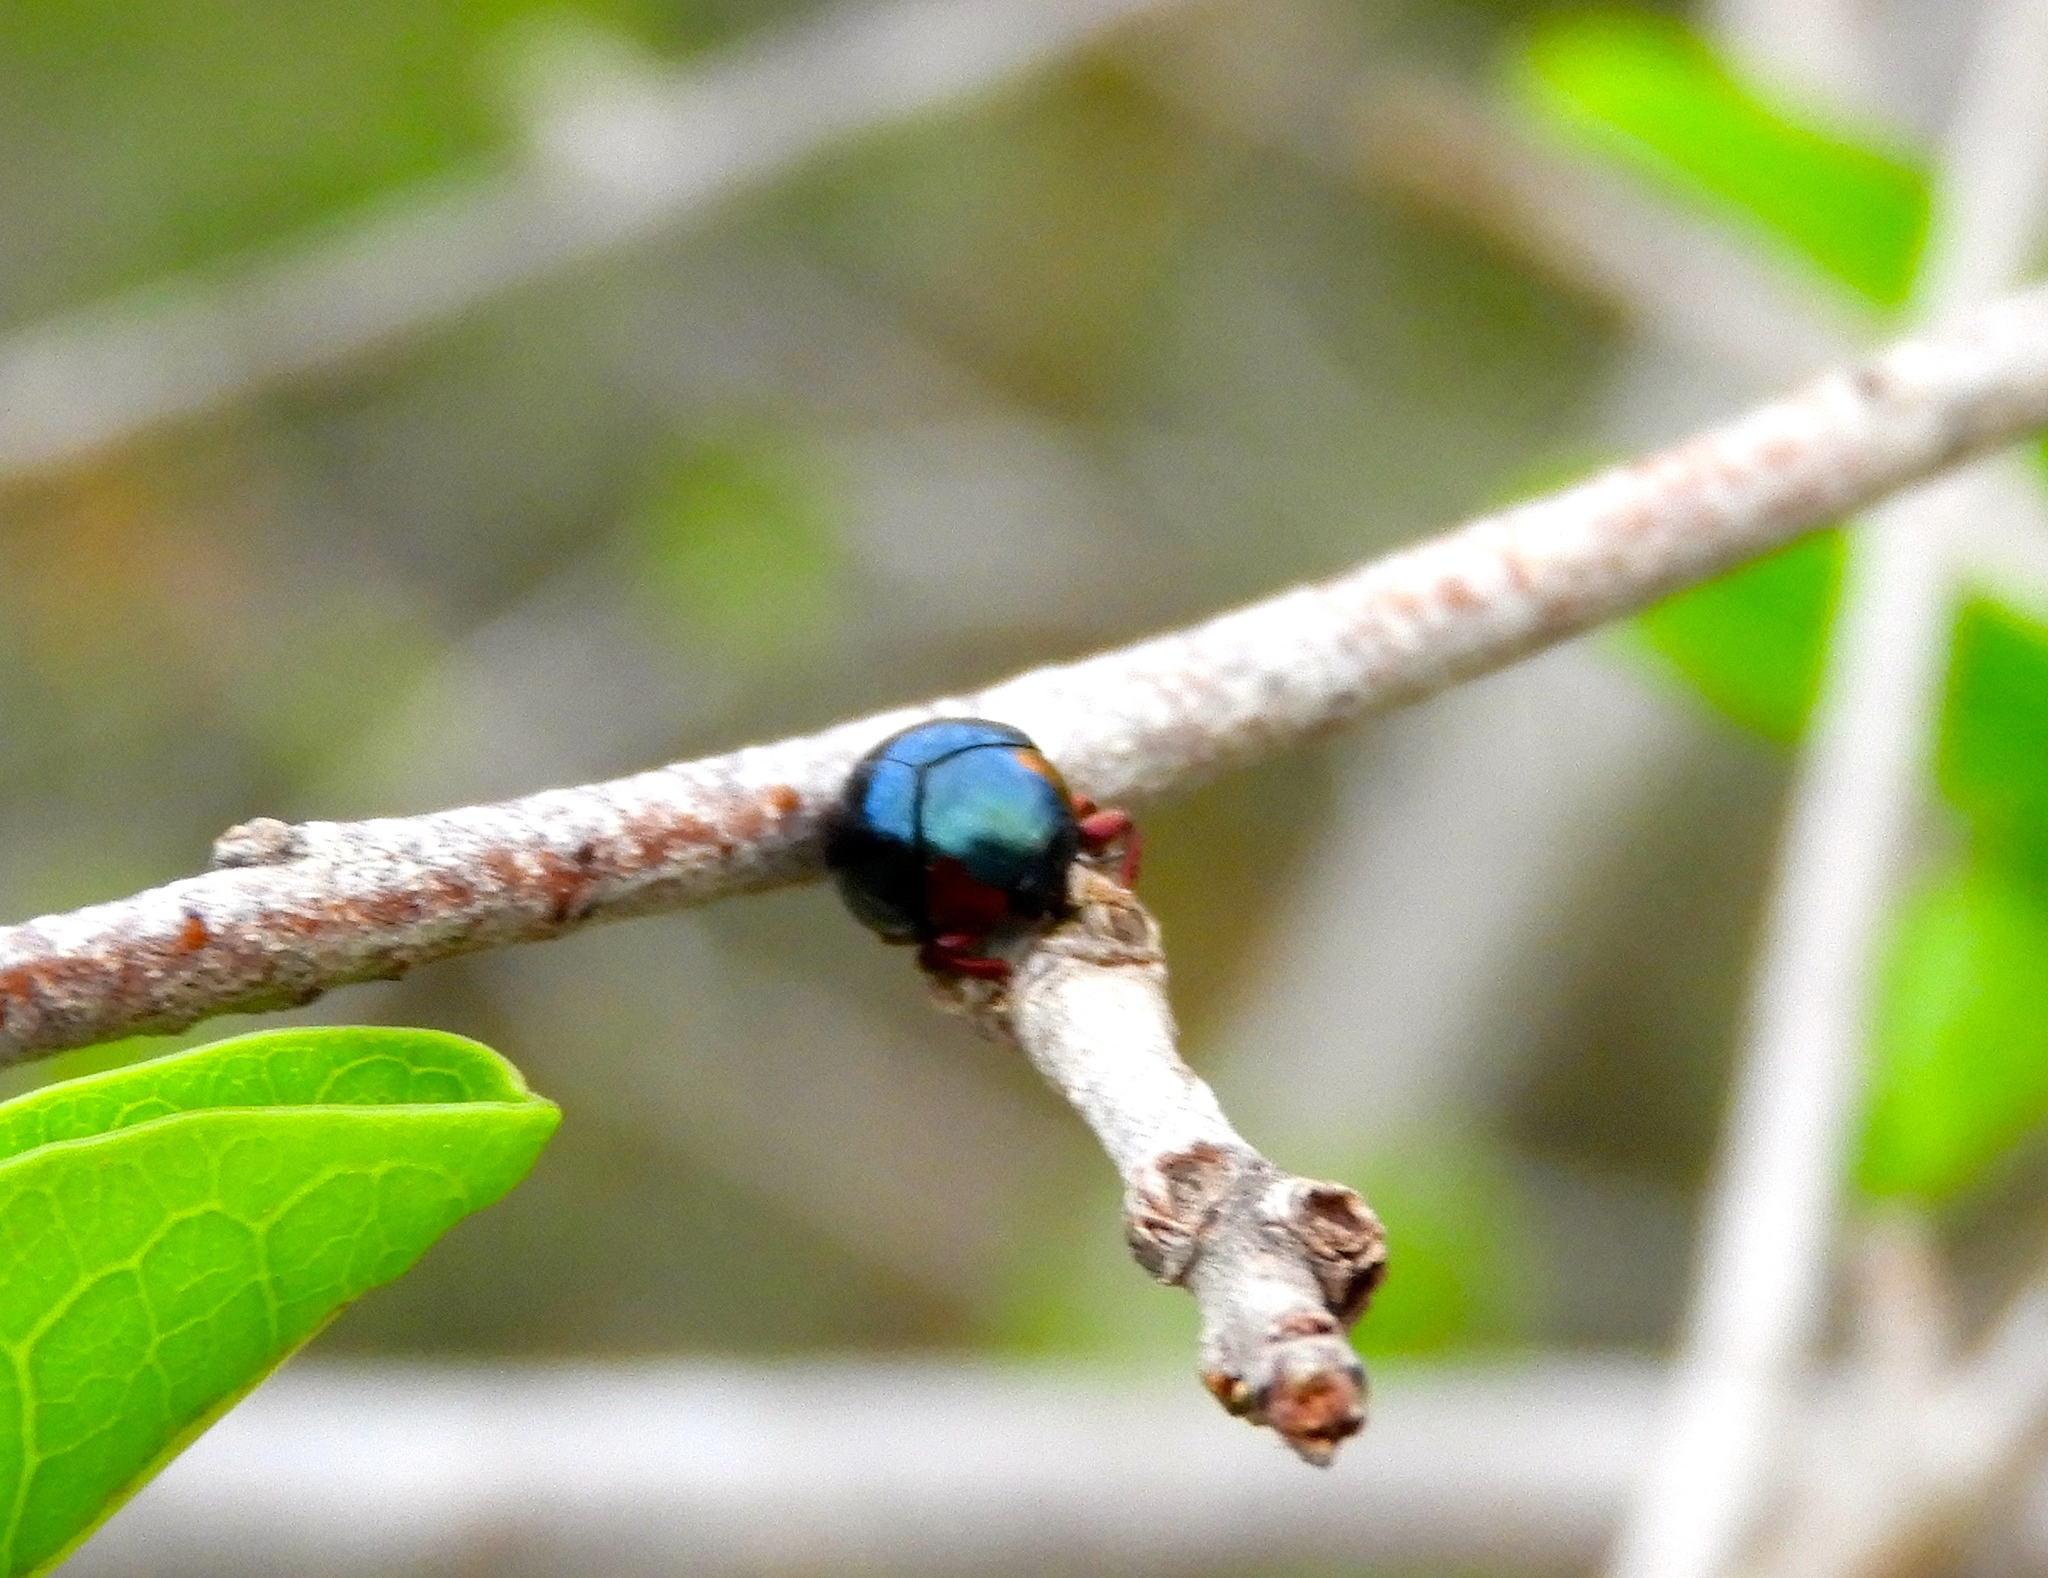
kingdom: Animalia
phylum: Arthropoda
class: Insecta
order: Coleoptera
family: Chrysomelidae
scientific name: Chrysomelidae
